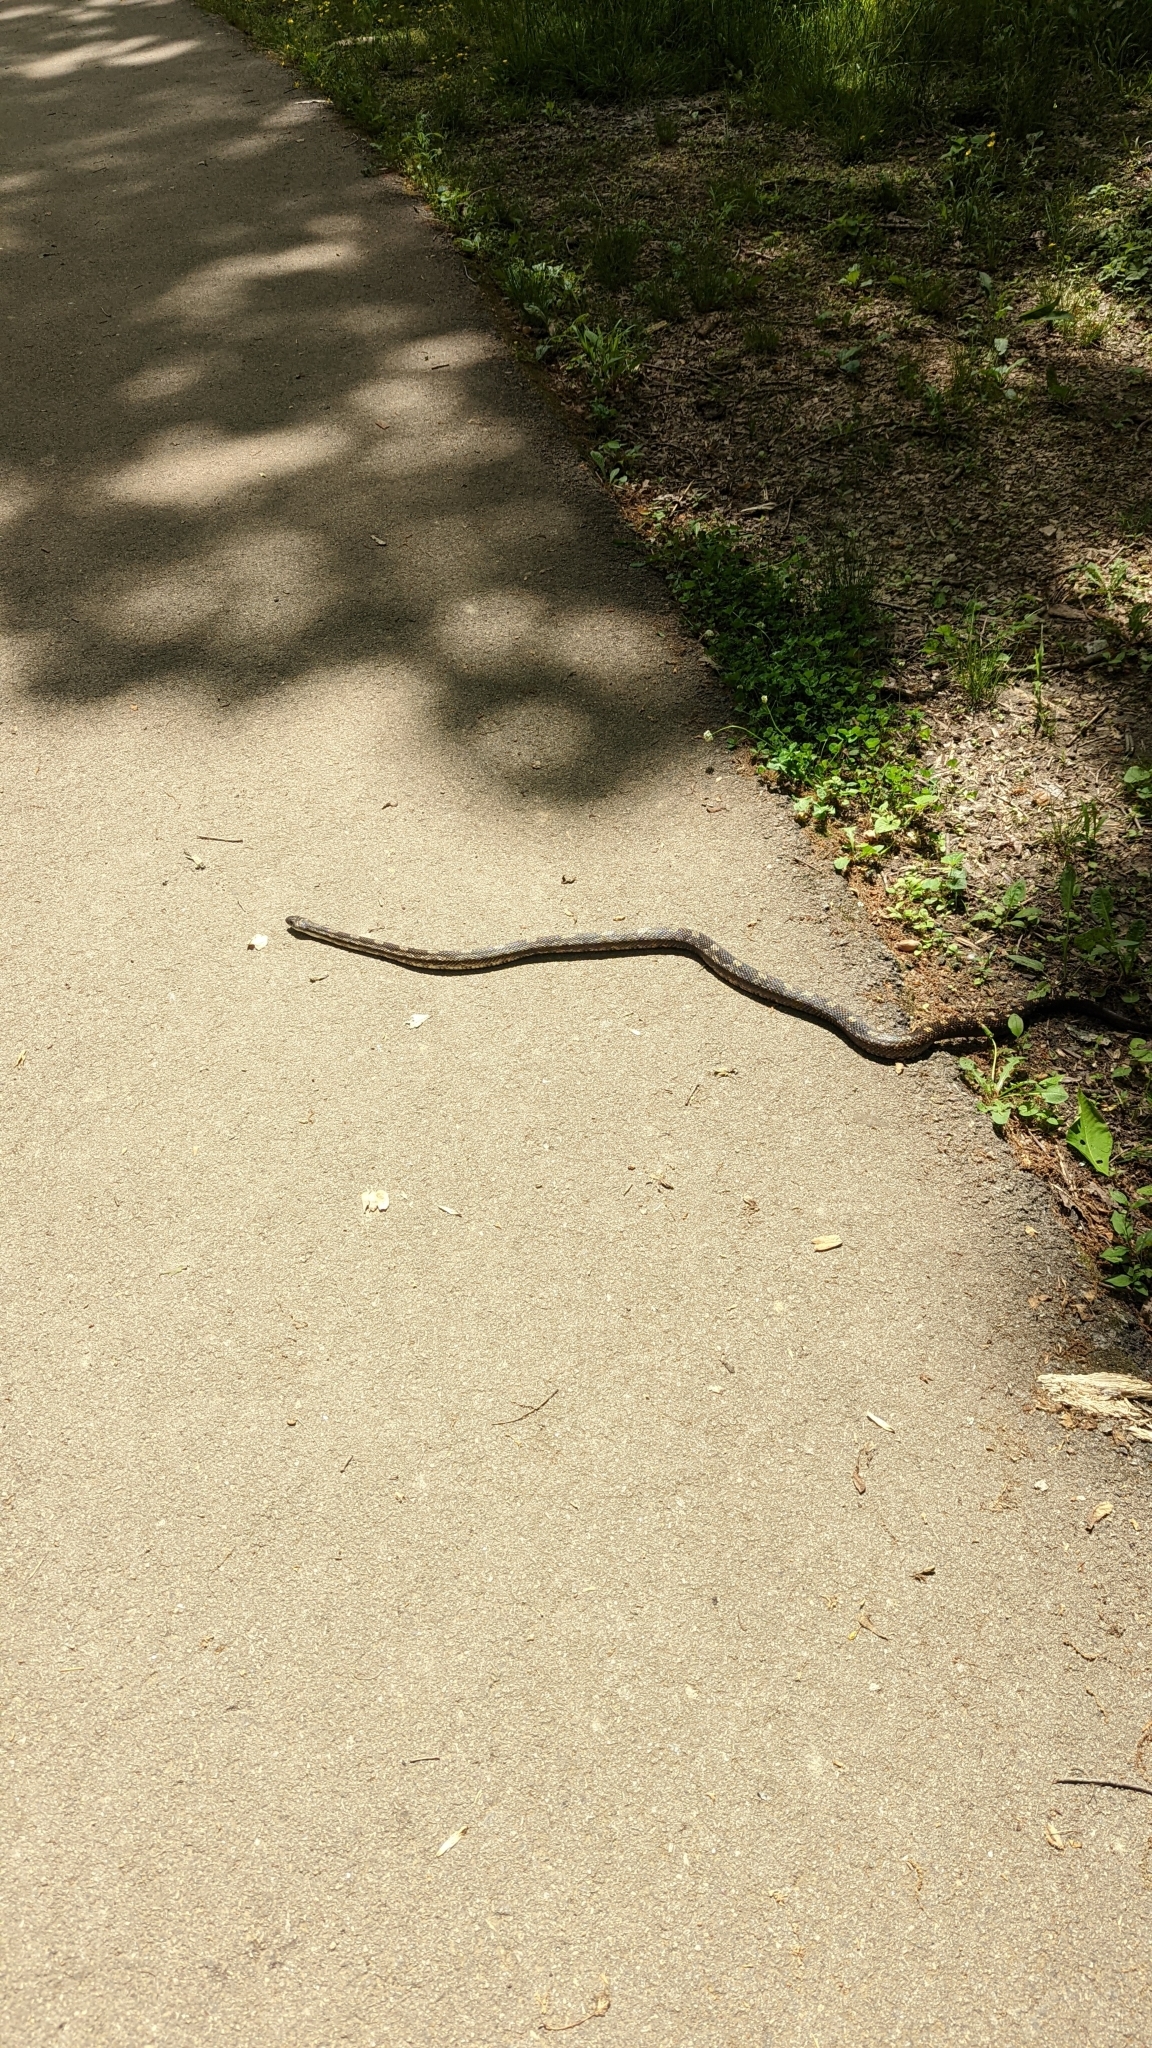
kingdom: Animalia
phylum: Chordata
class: Squamata
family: Colubridae
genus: Pantherophis
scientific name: Pantherophis spiloides
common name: Gray rat snake
